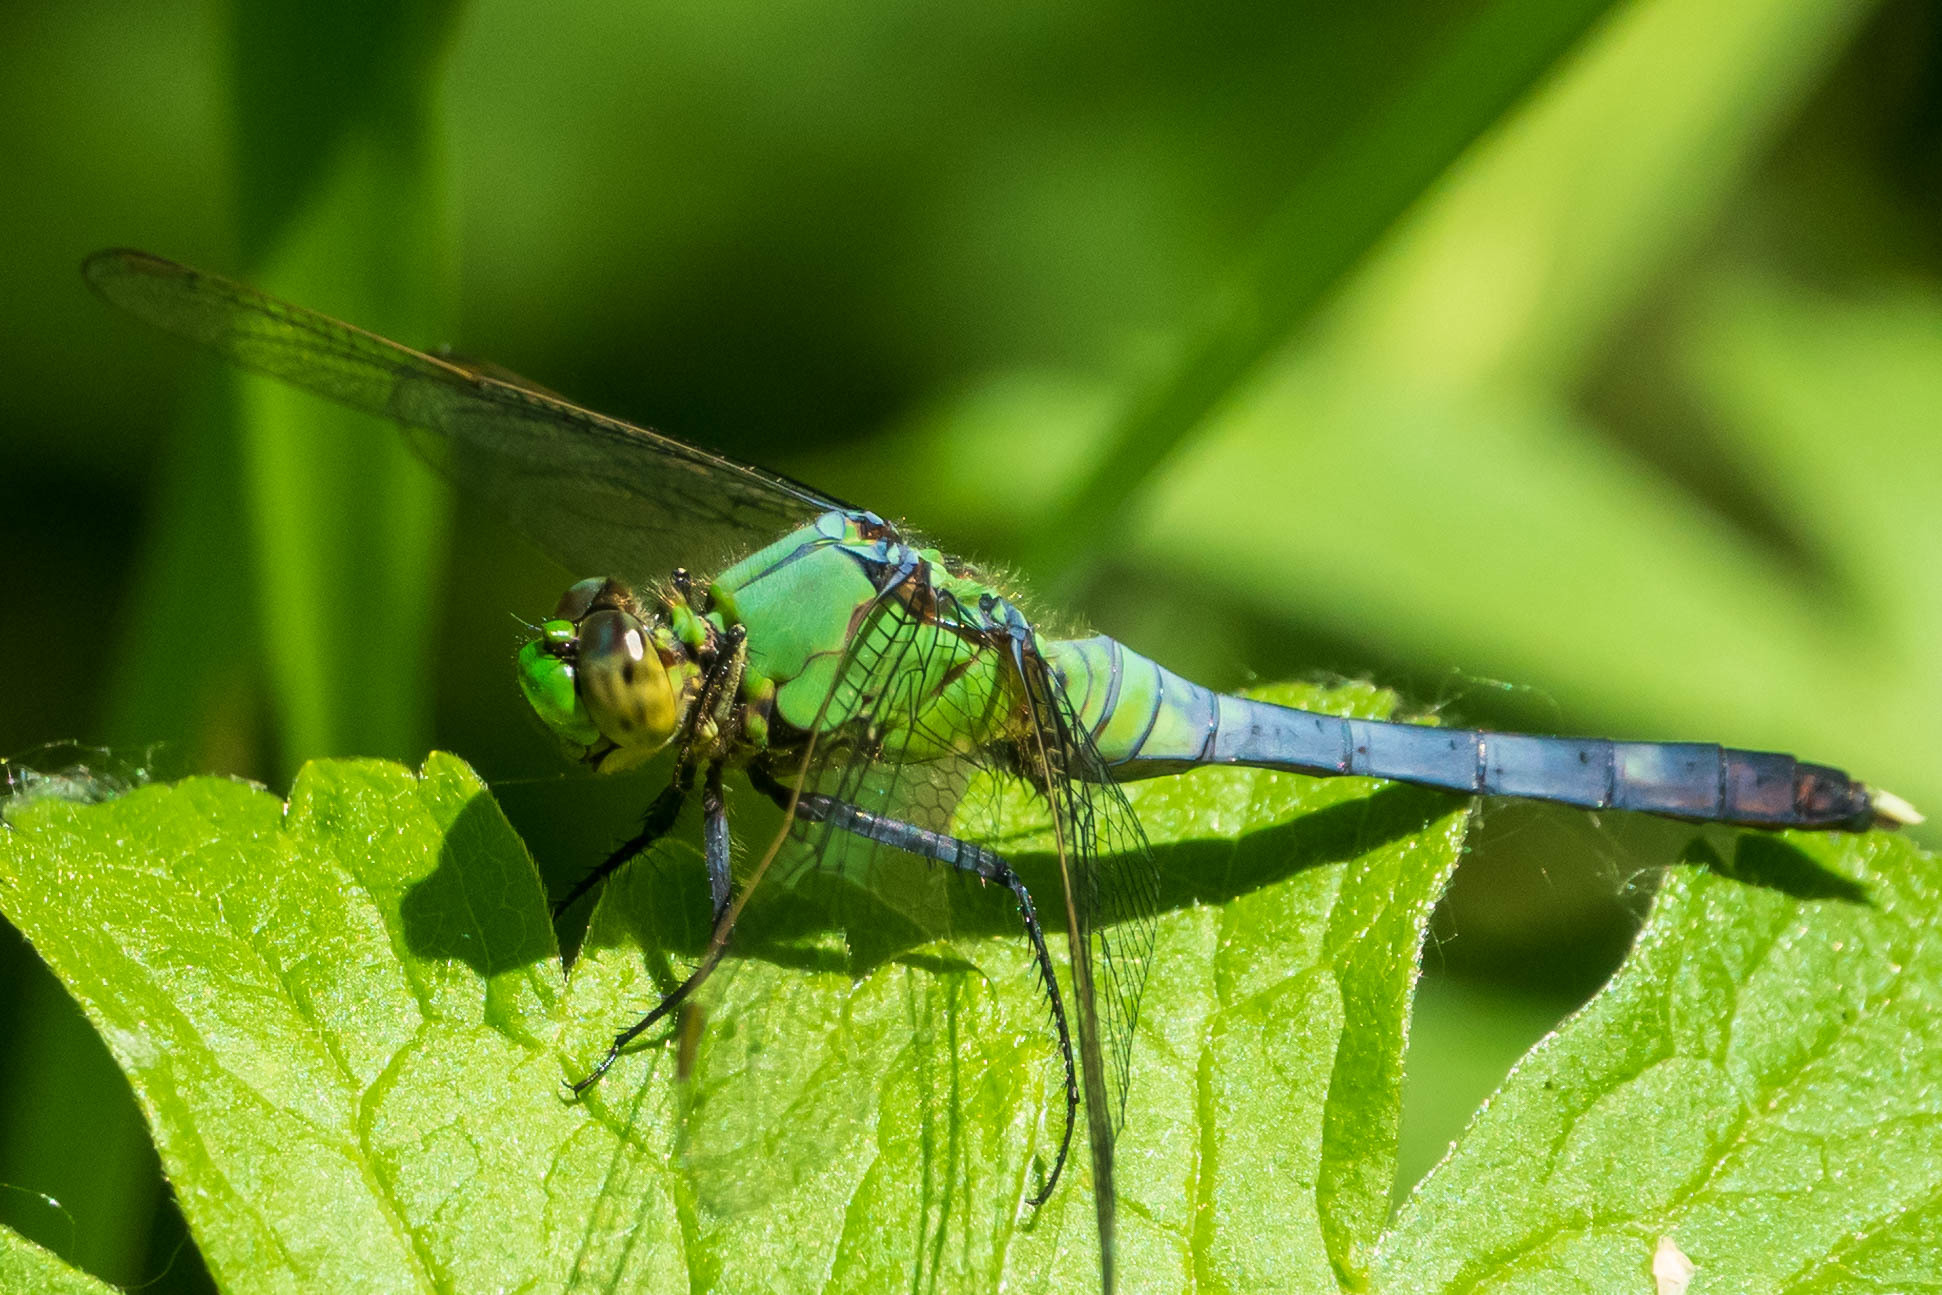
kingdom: Animalia
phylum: Arthropoda
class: Insecta
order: Odonata
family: Libellulidae
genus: Erythemis
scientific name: Erythemis simplicicollis
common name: Eastern pondhawk
